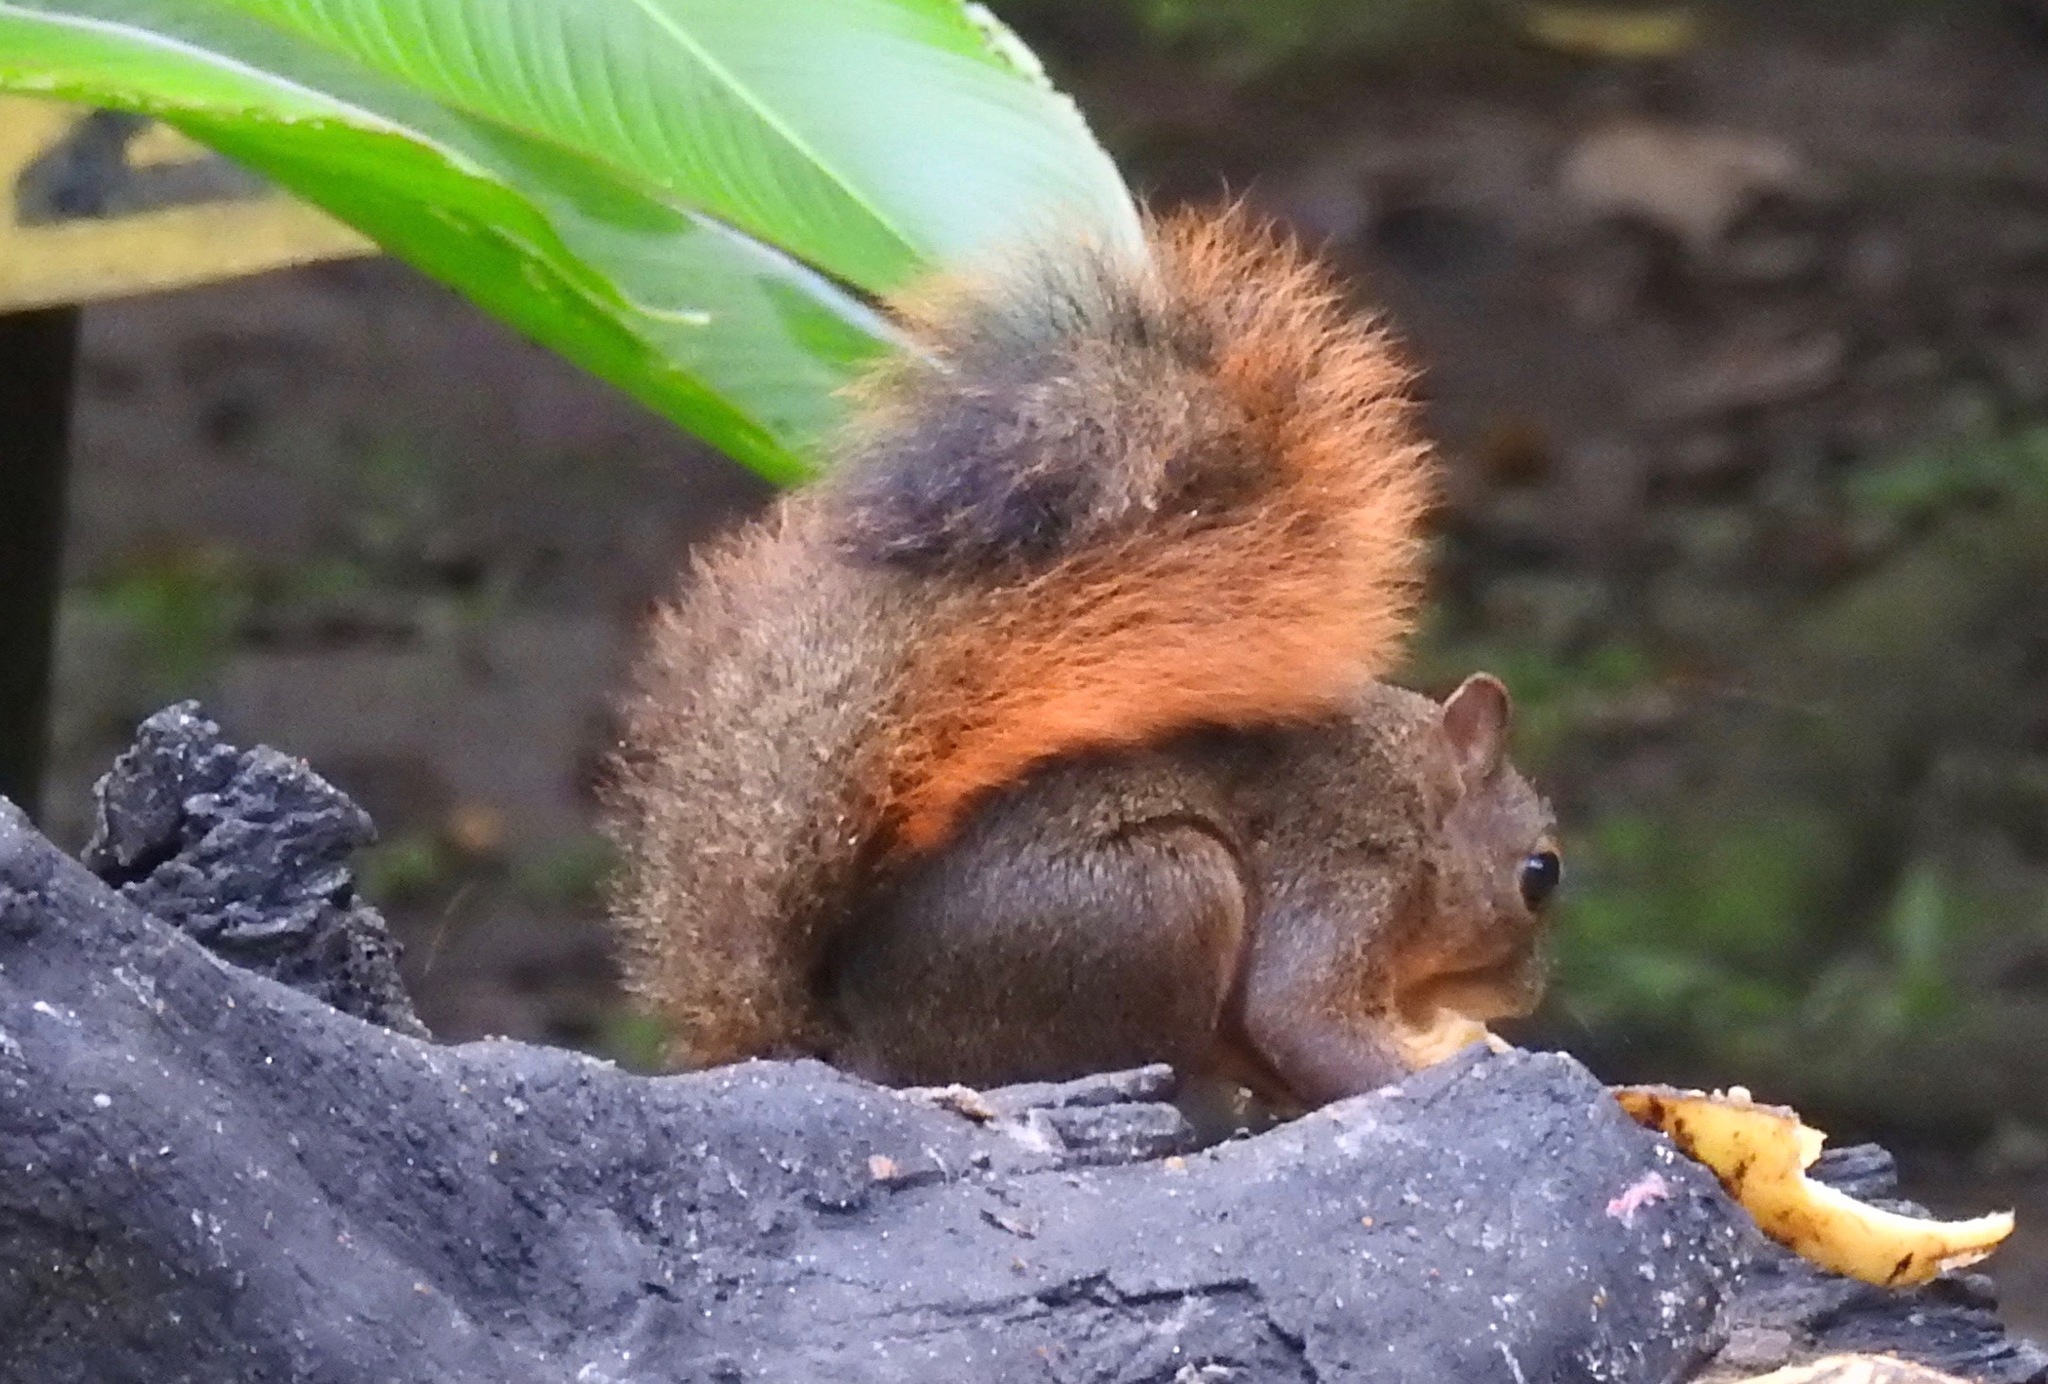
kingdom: Animalia
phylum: Chordata
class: Mammalia
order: Rodentia
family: Sciuridae
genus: Sciurus
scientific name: Sciurus granatensis
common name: Red-tailed squirrel
